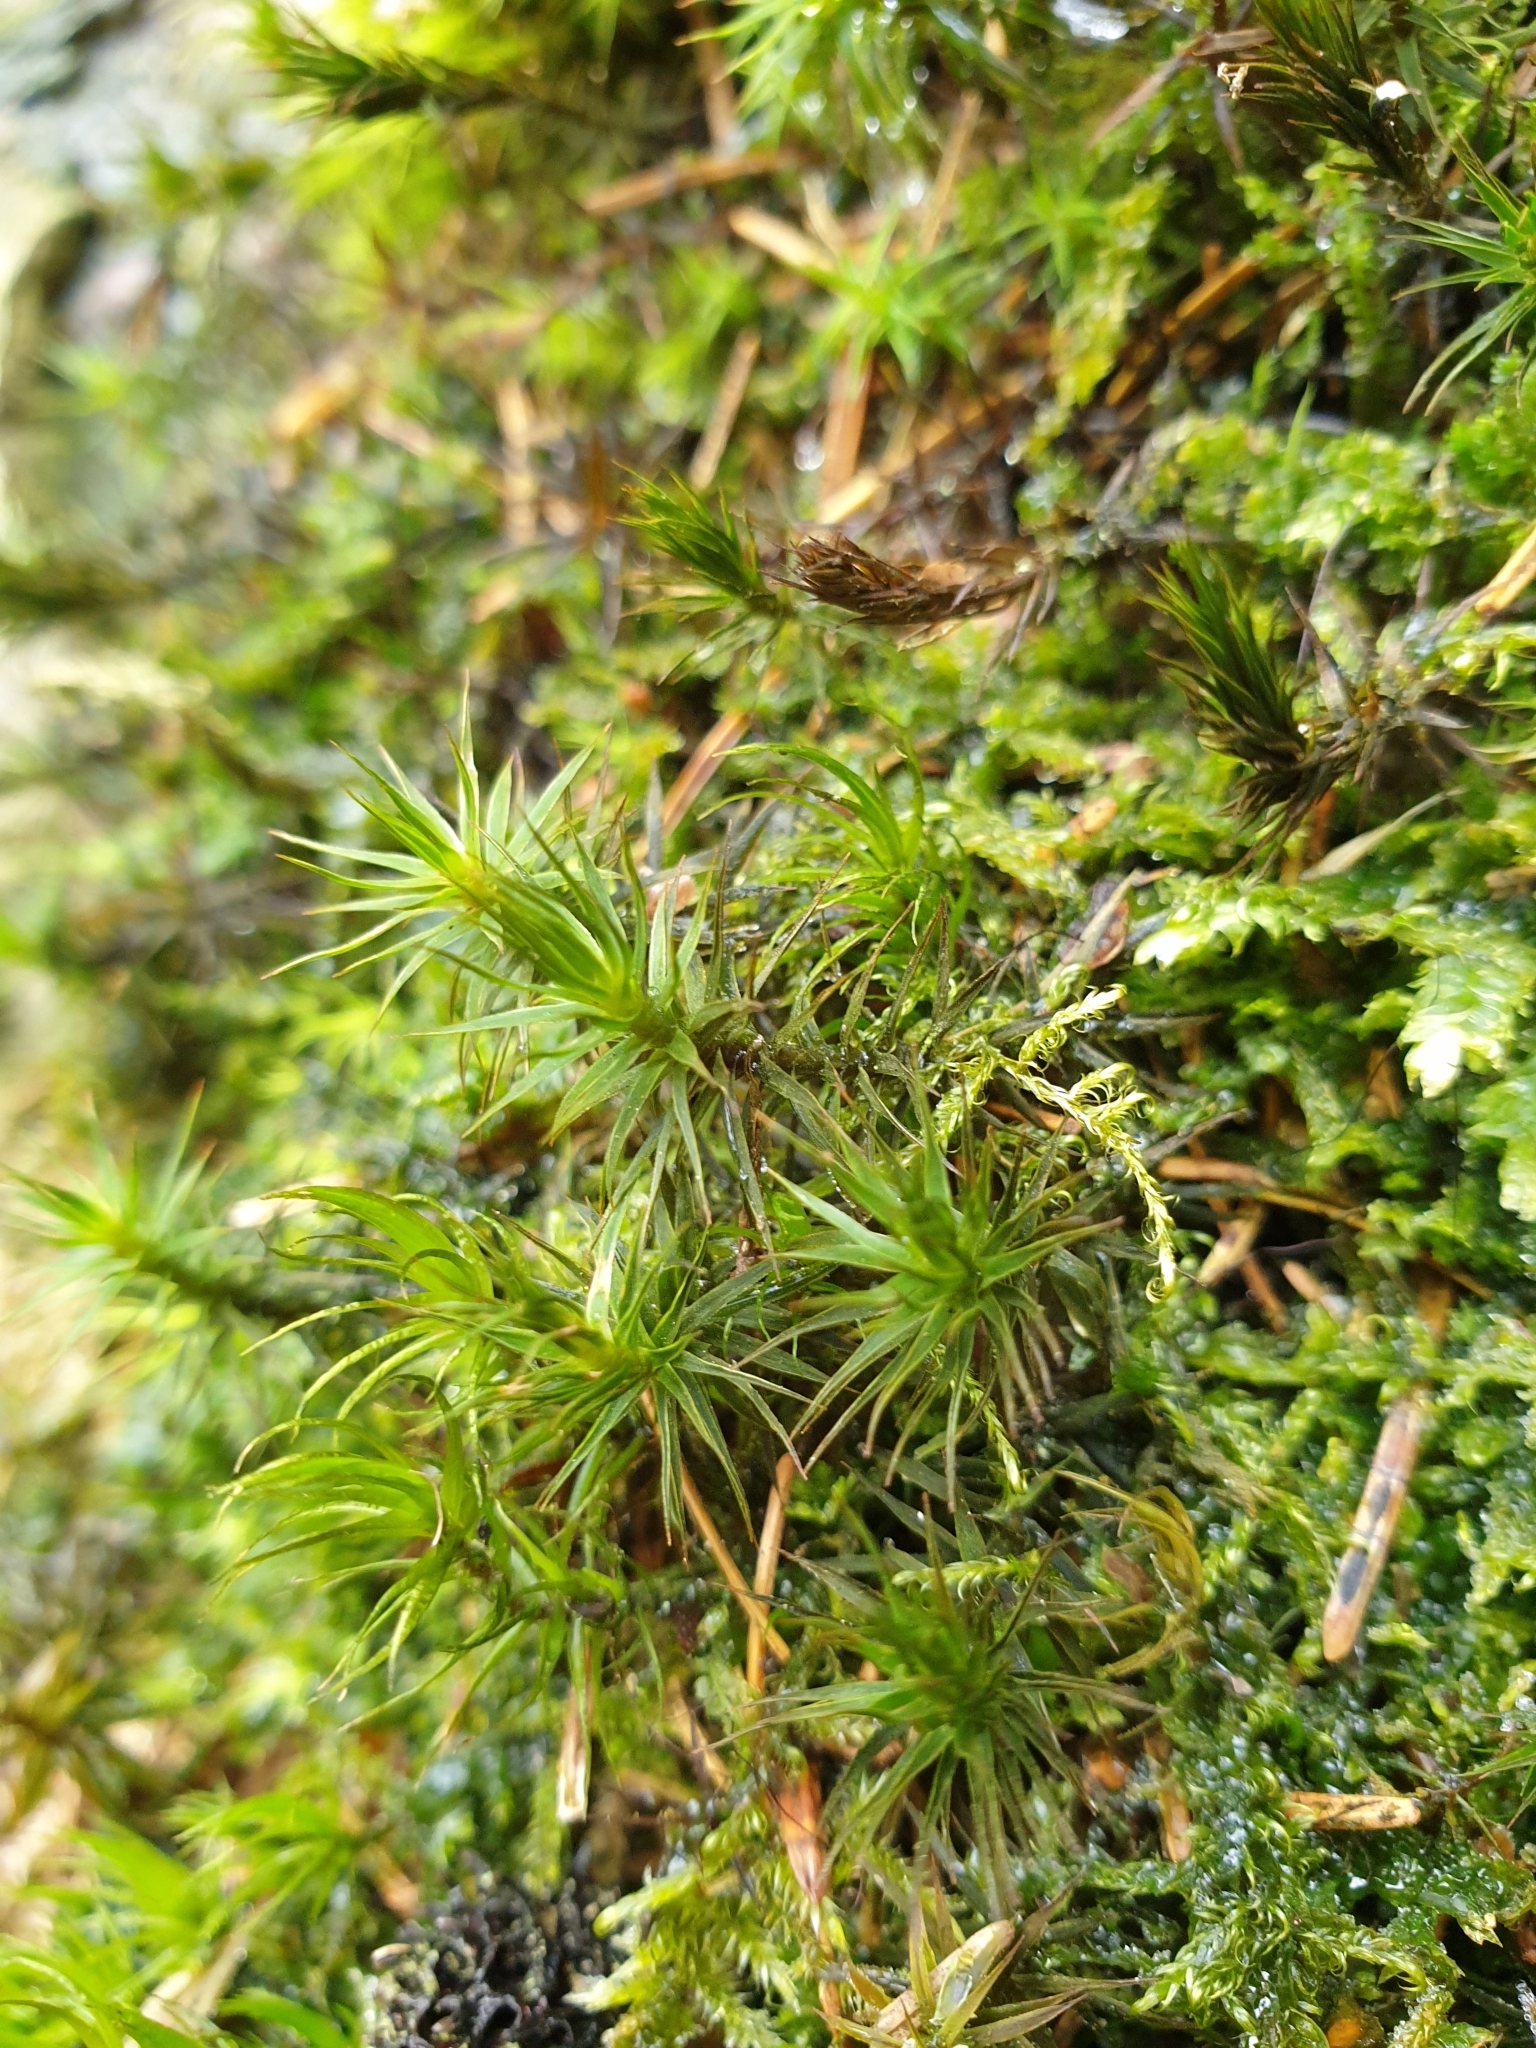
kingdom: Plantae
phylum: Bryophyta
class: Polytrichopsida
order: Polytrichales
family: Polytrichaceae
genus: Polytrichum
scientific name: Polytrichum formosum
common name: Bank haircap moss
